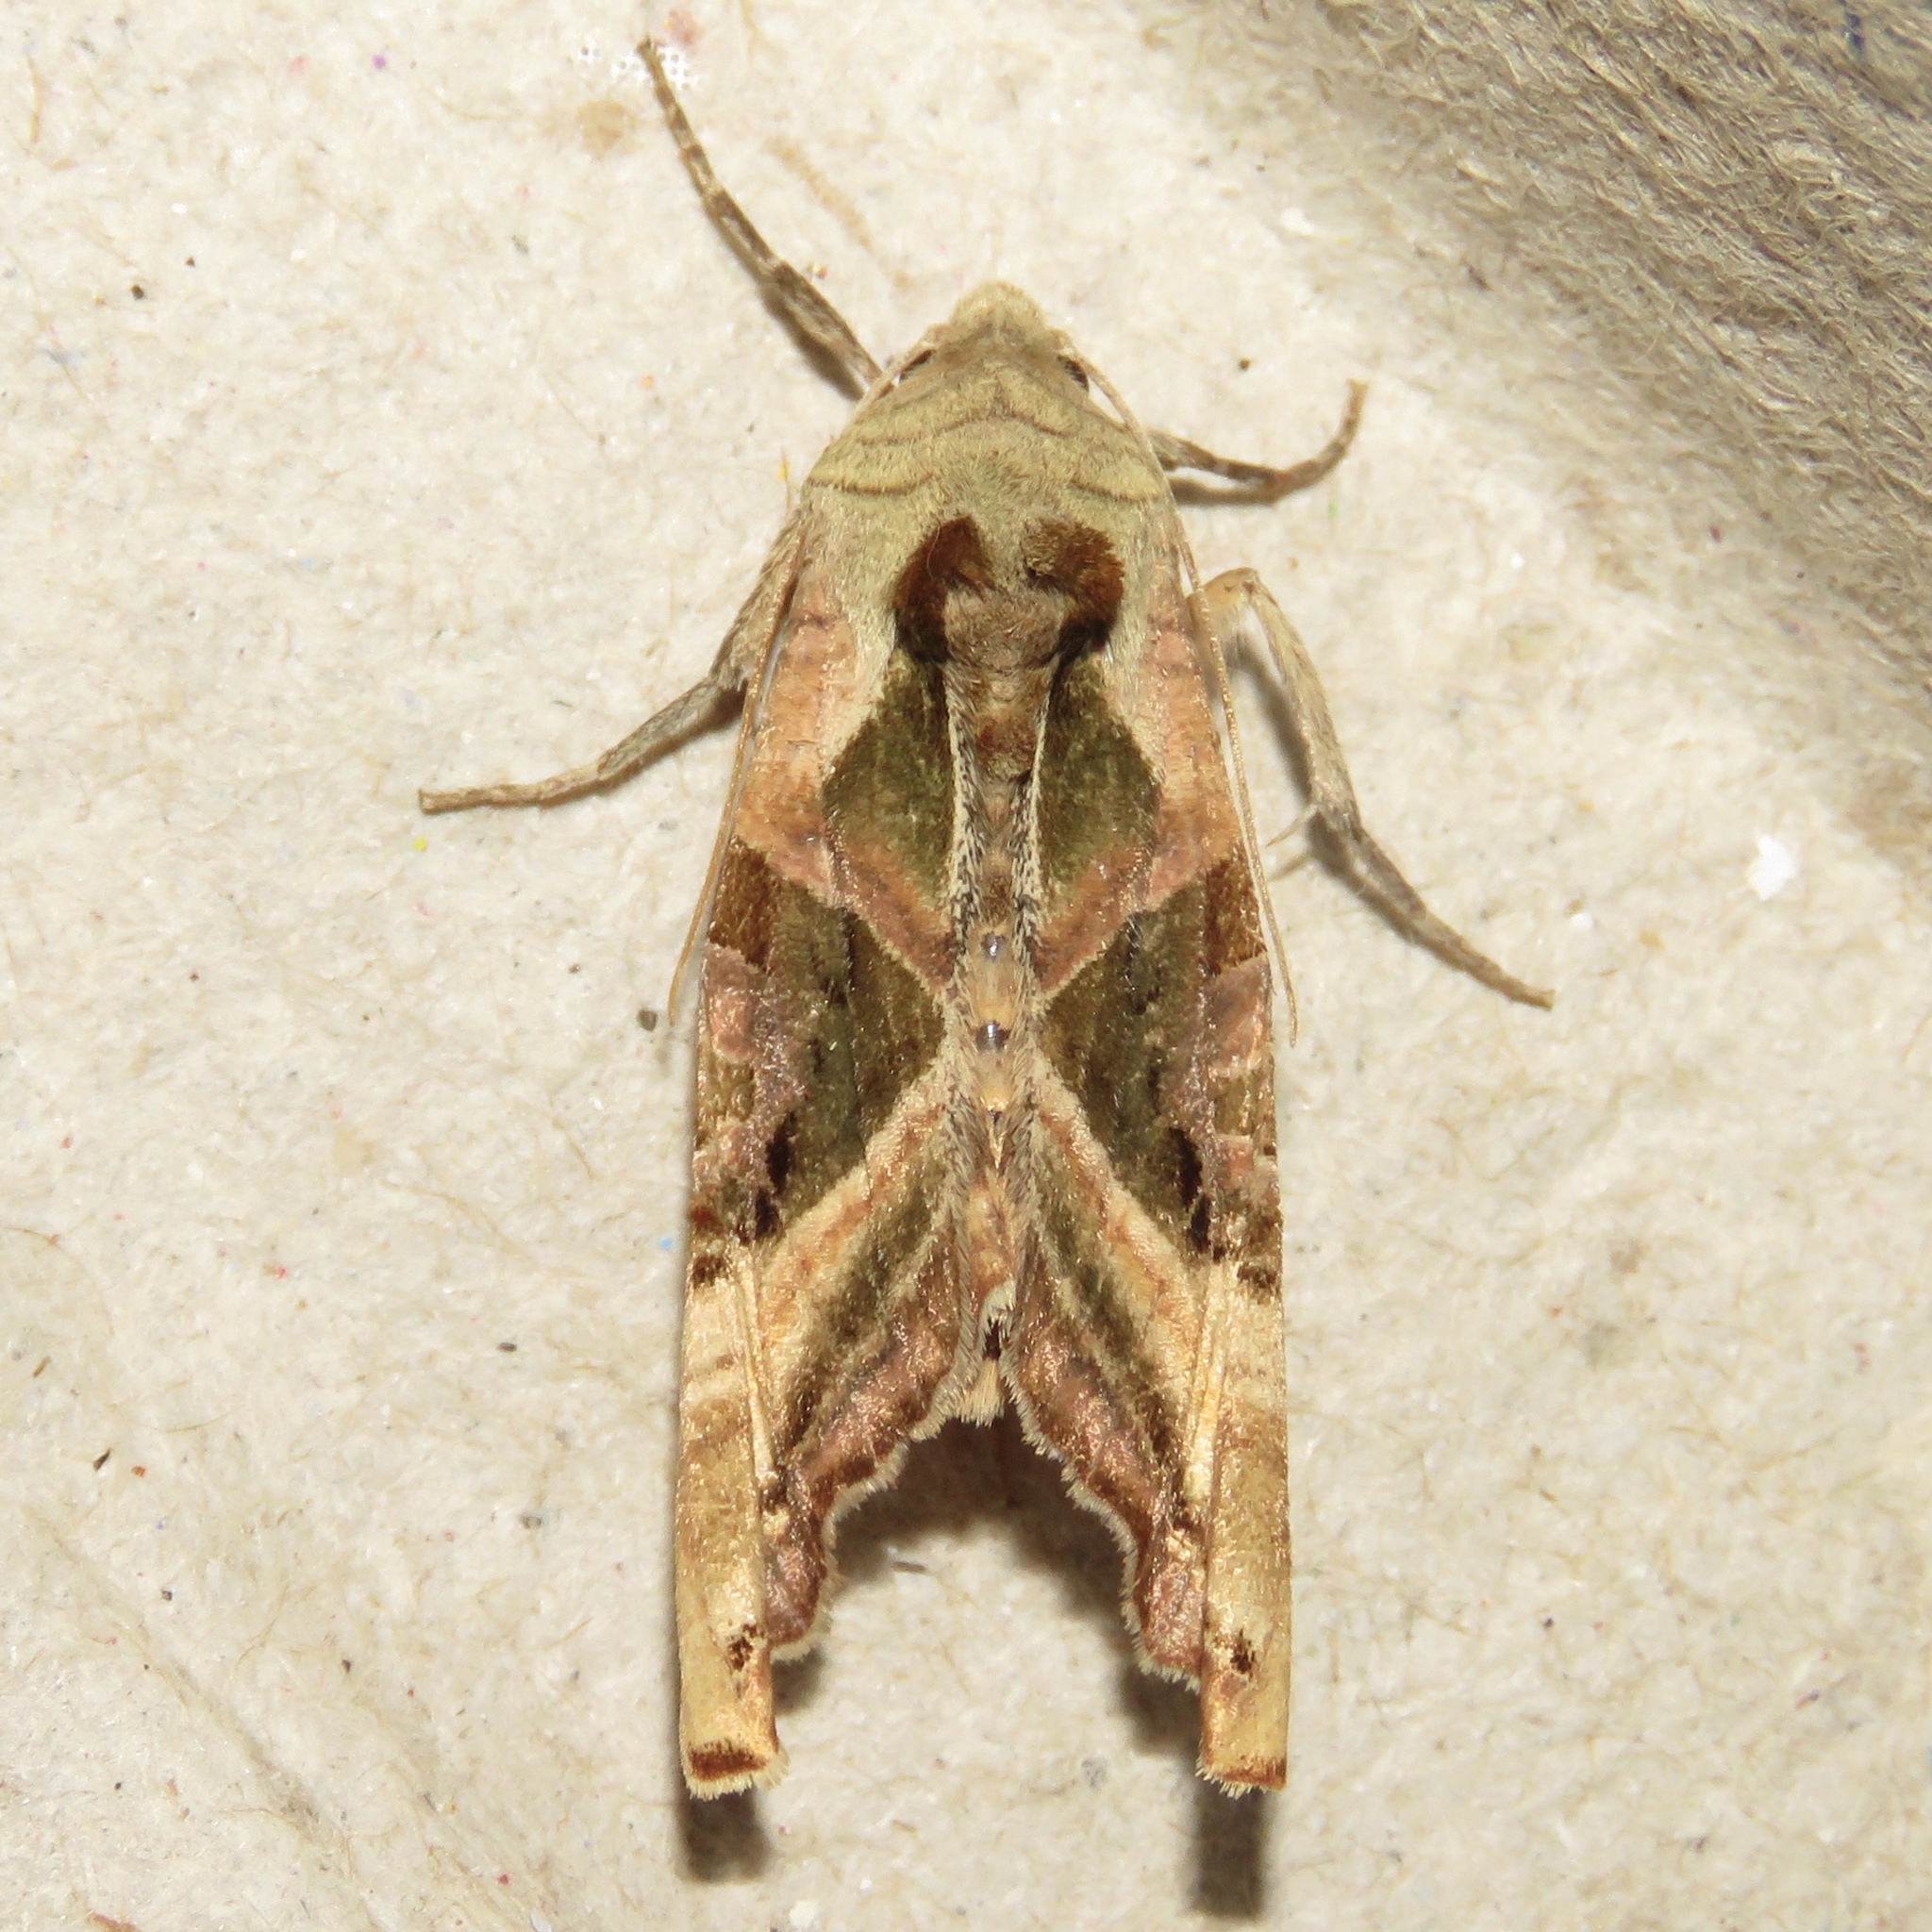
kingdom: Animalia
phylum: Arthropoda
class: Insecta
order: Lepidoptera
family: Noctuidae
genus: Phlogophora
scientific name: Phlogophora iris
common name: Olive angle shades
